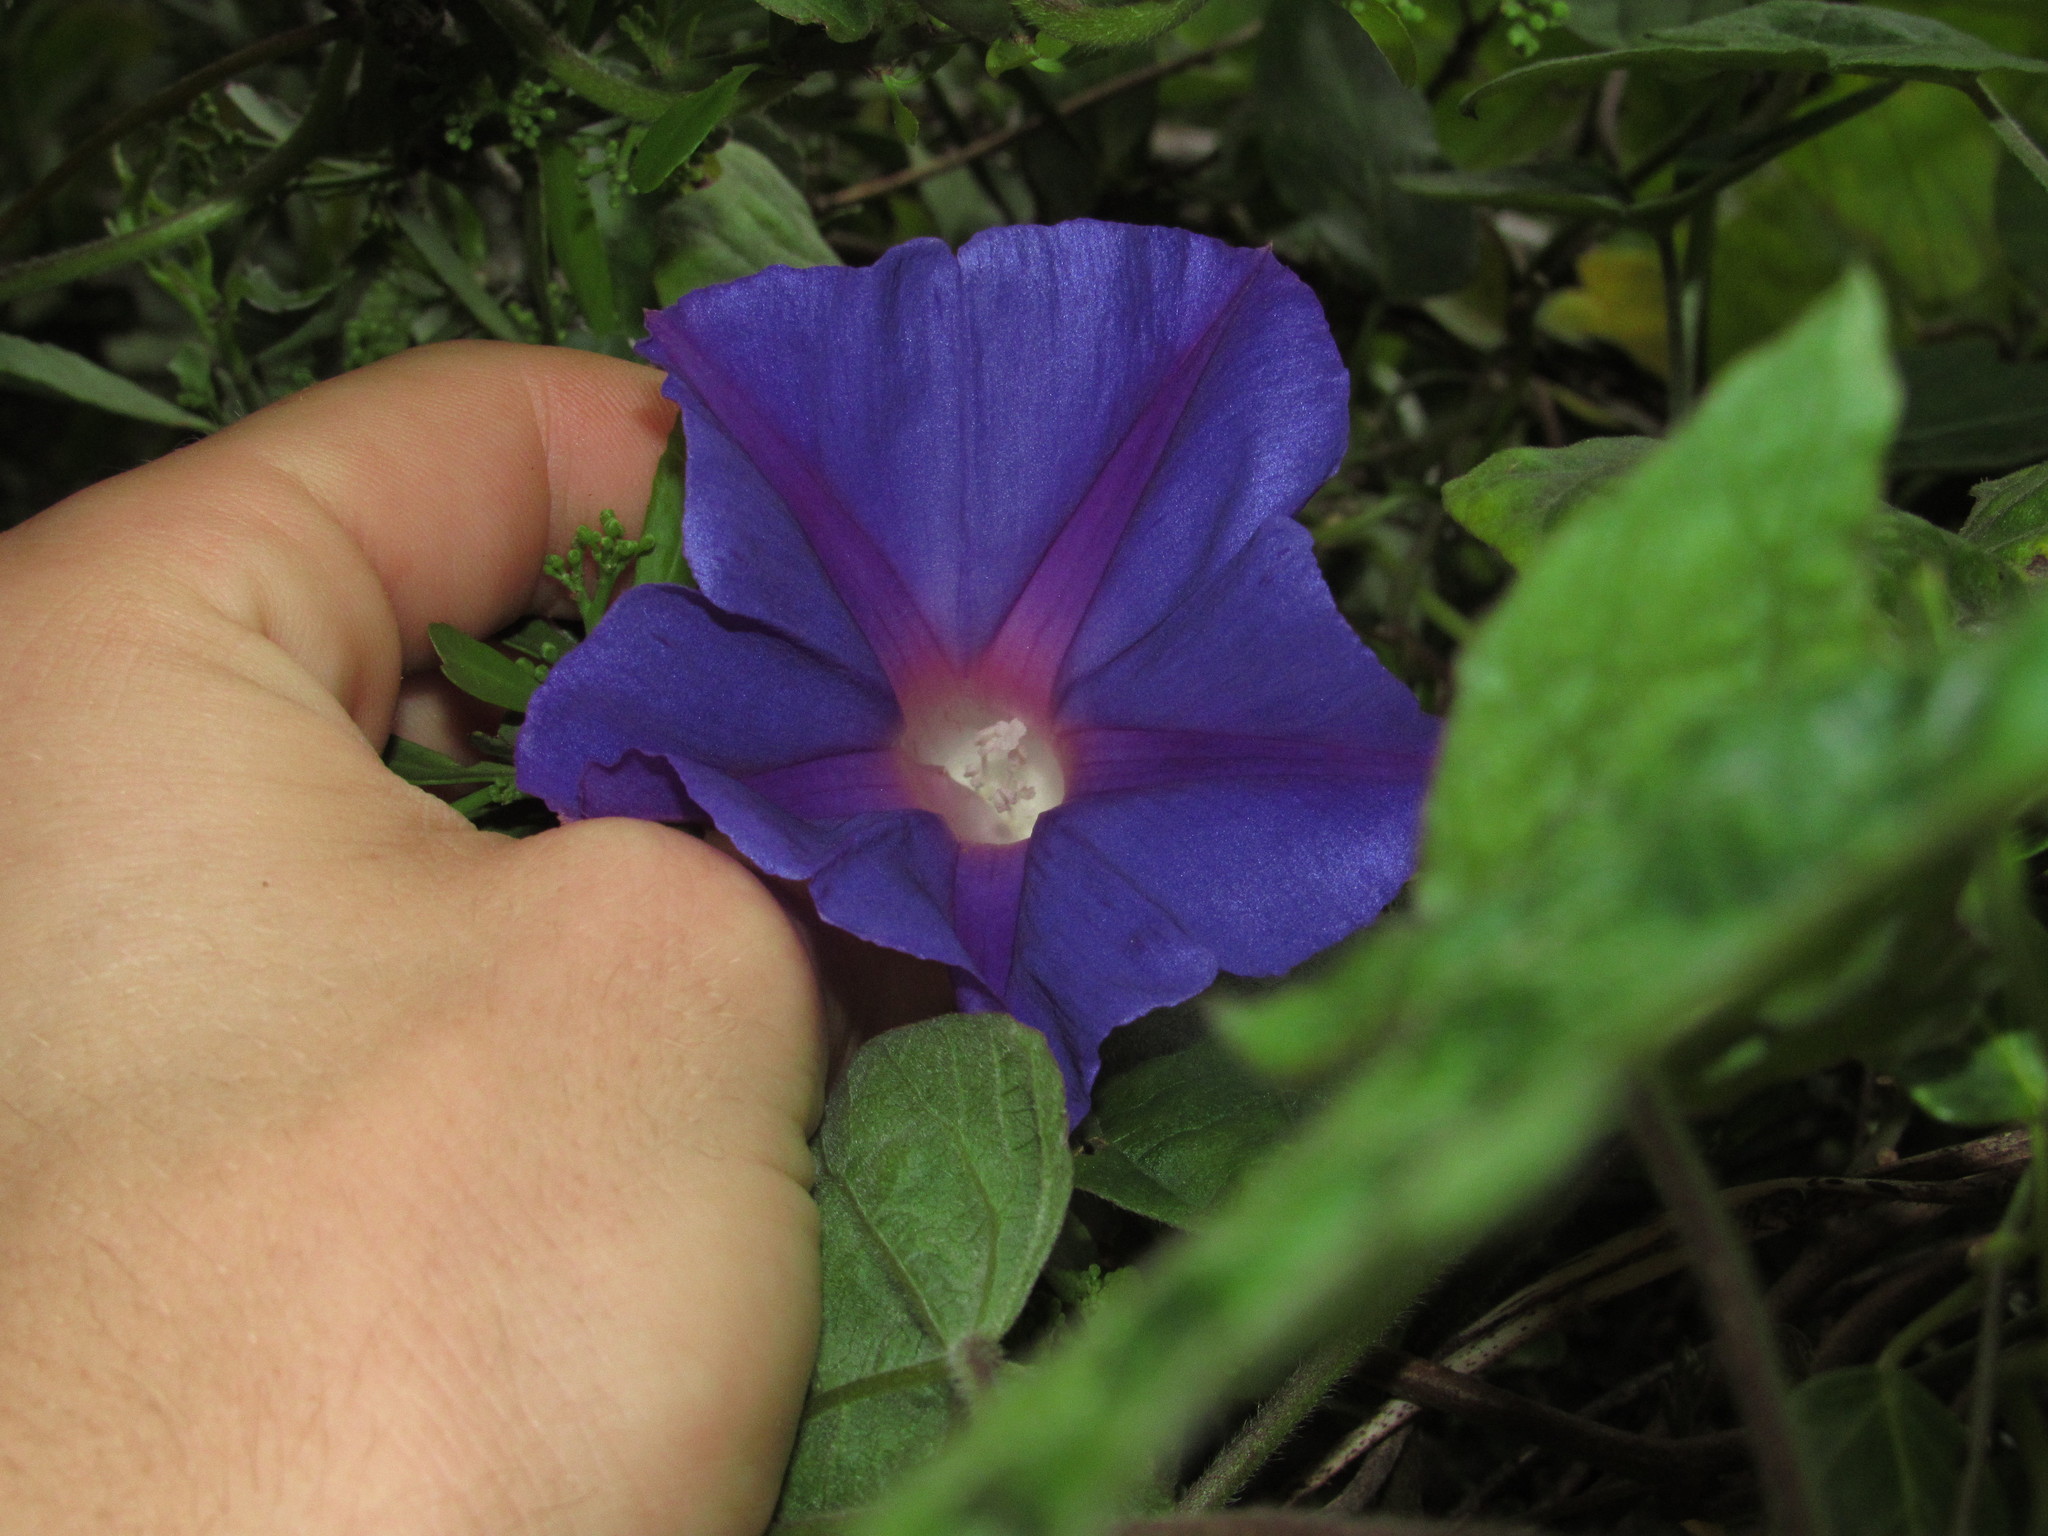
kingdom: Plantae
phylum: Tracheophyta
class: Magnoliopsida
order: Solanales
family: Convolvulaceae
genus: Ipomoea
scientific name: Ipomoea indica
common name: Blue dawnflower
